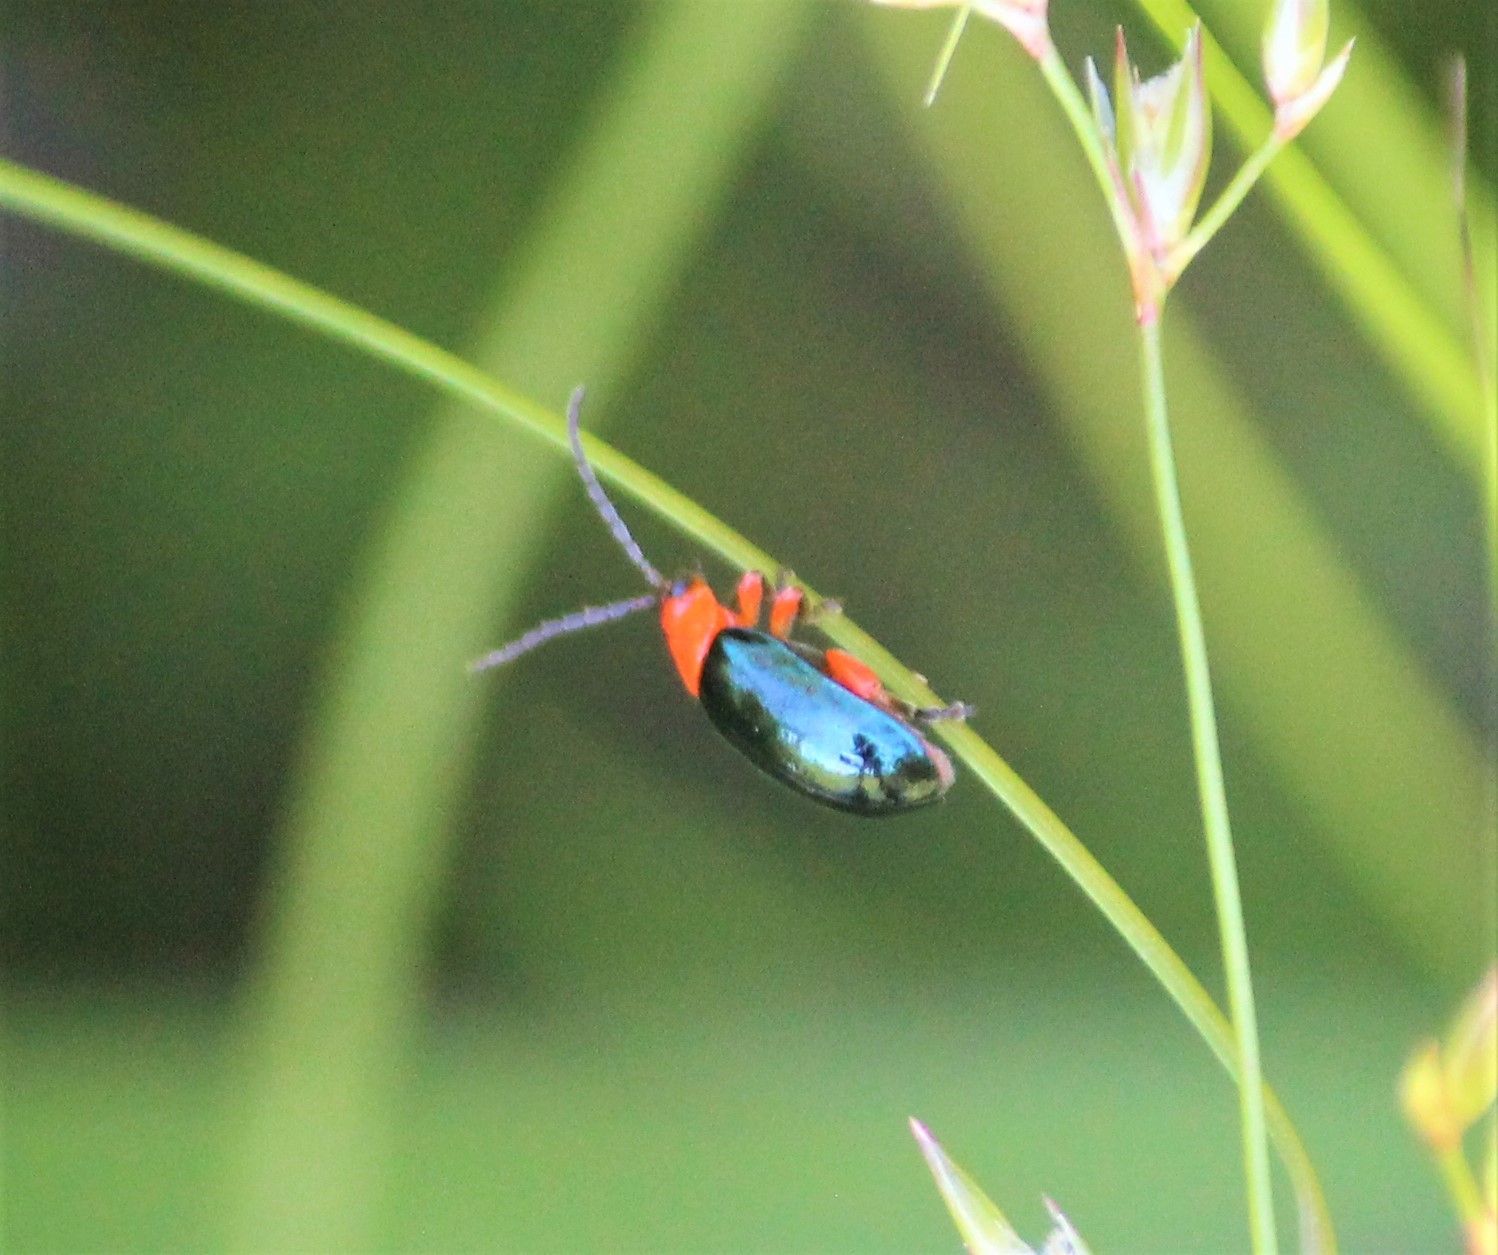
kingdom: Animalia
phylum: Arthropoda
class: Insecta
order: Coleoptera
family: Chrysomelidae
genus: Asphaera
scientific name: Asphaera lustrans
